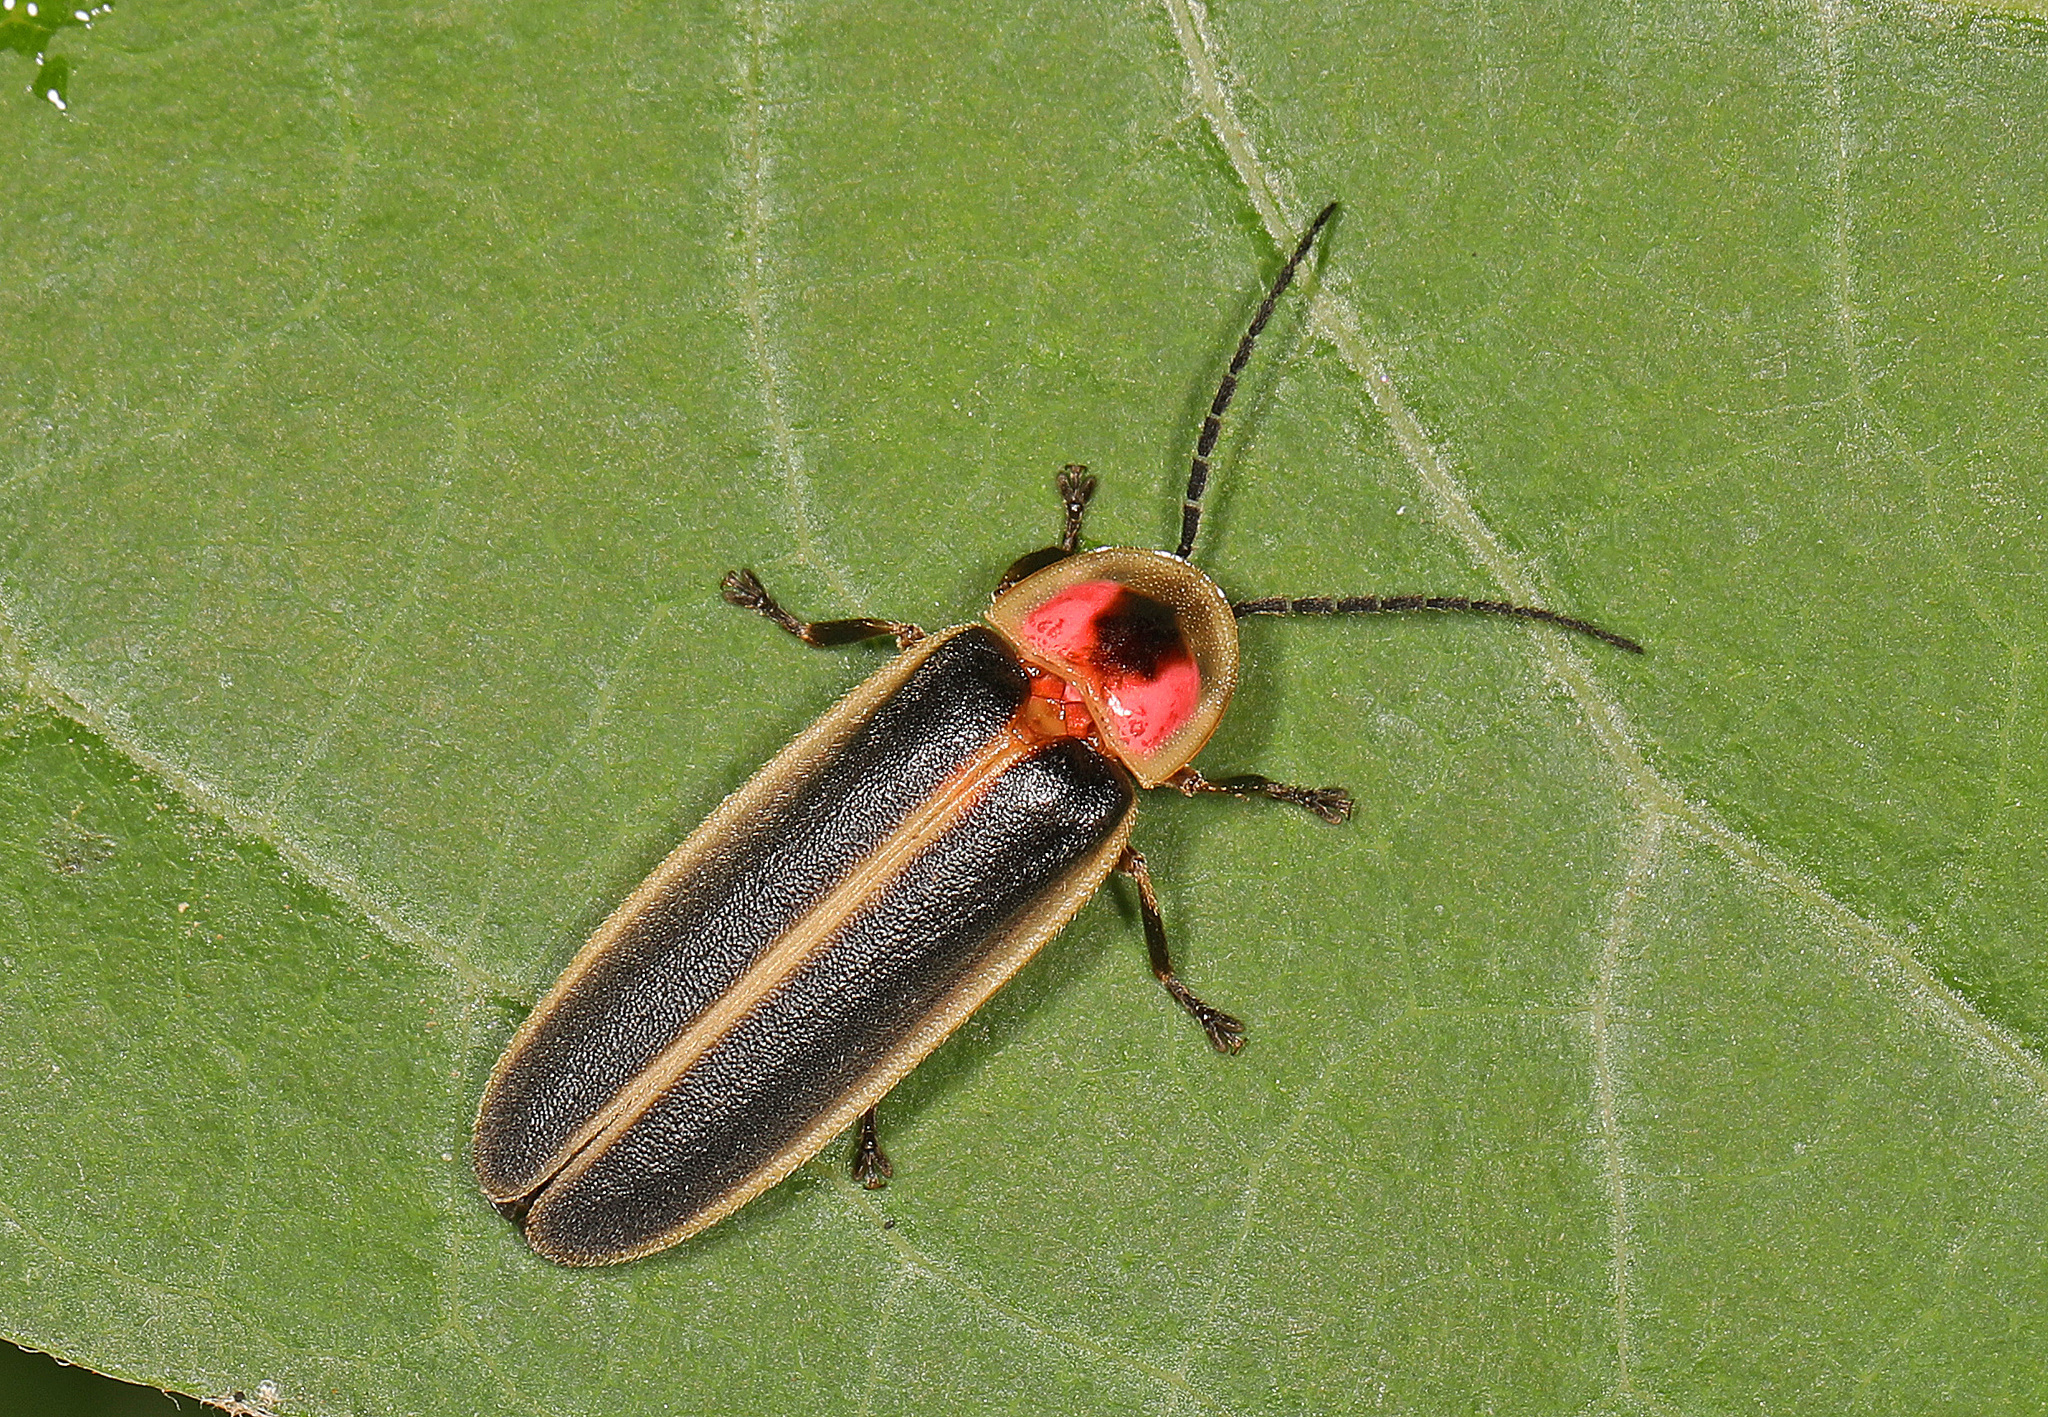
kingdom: Animalia
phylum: Arthropoda
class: Insecta
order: Coleoptera
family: Lampyridae
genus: Photinus
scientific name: Photinus pyralis
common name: Big dipper firefly
